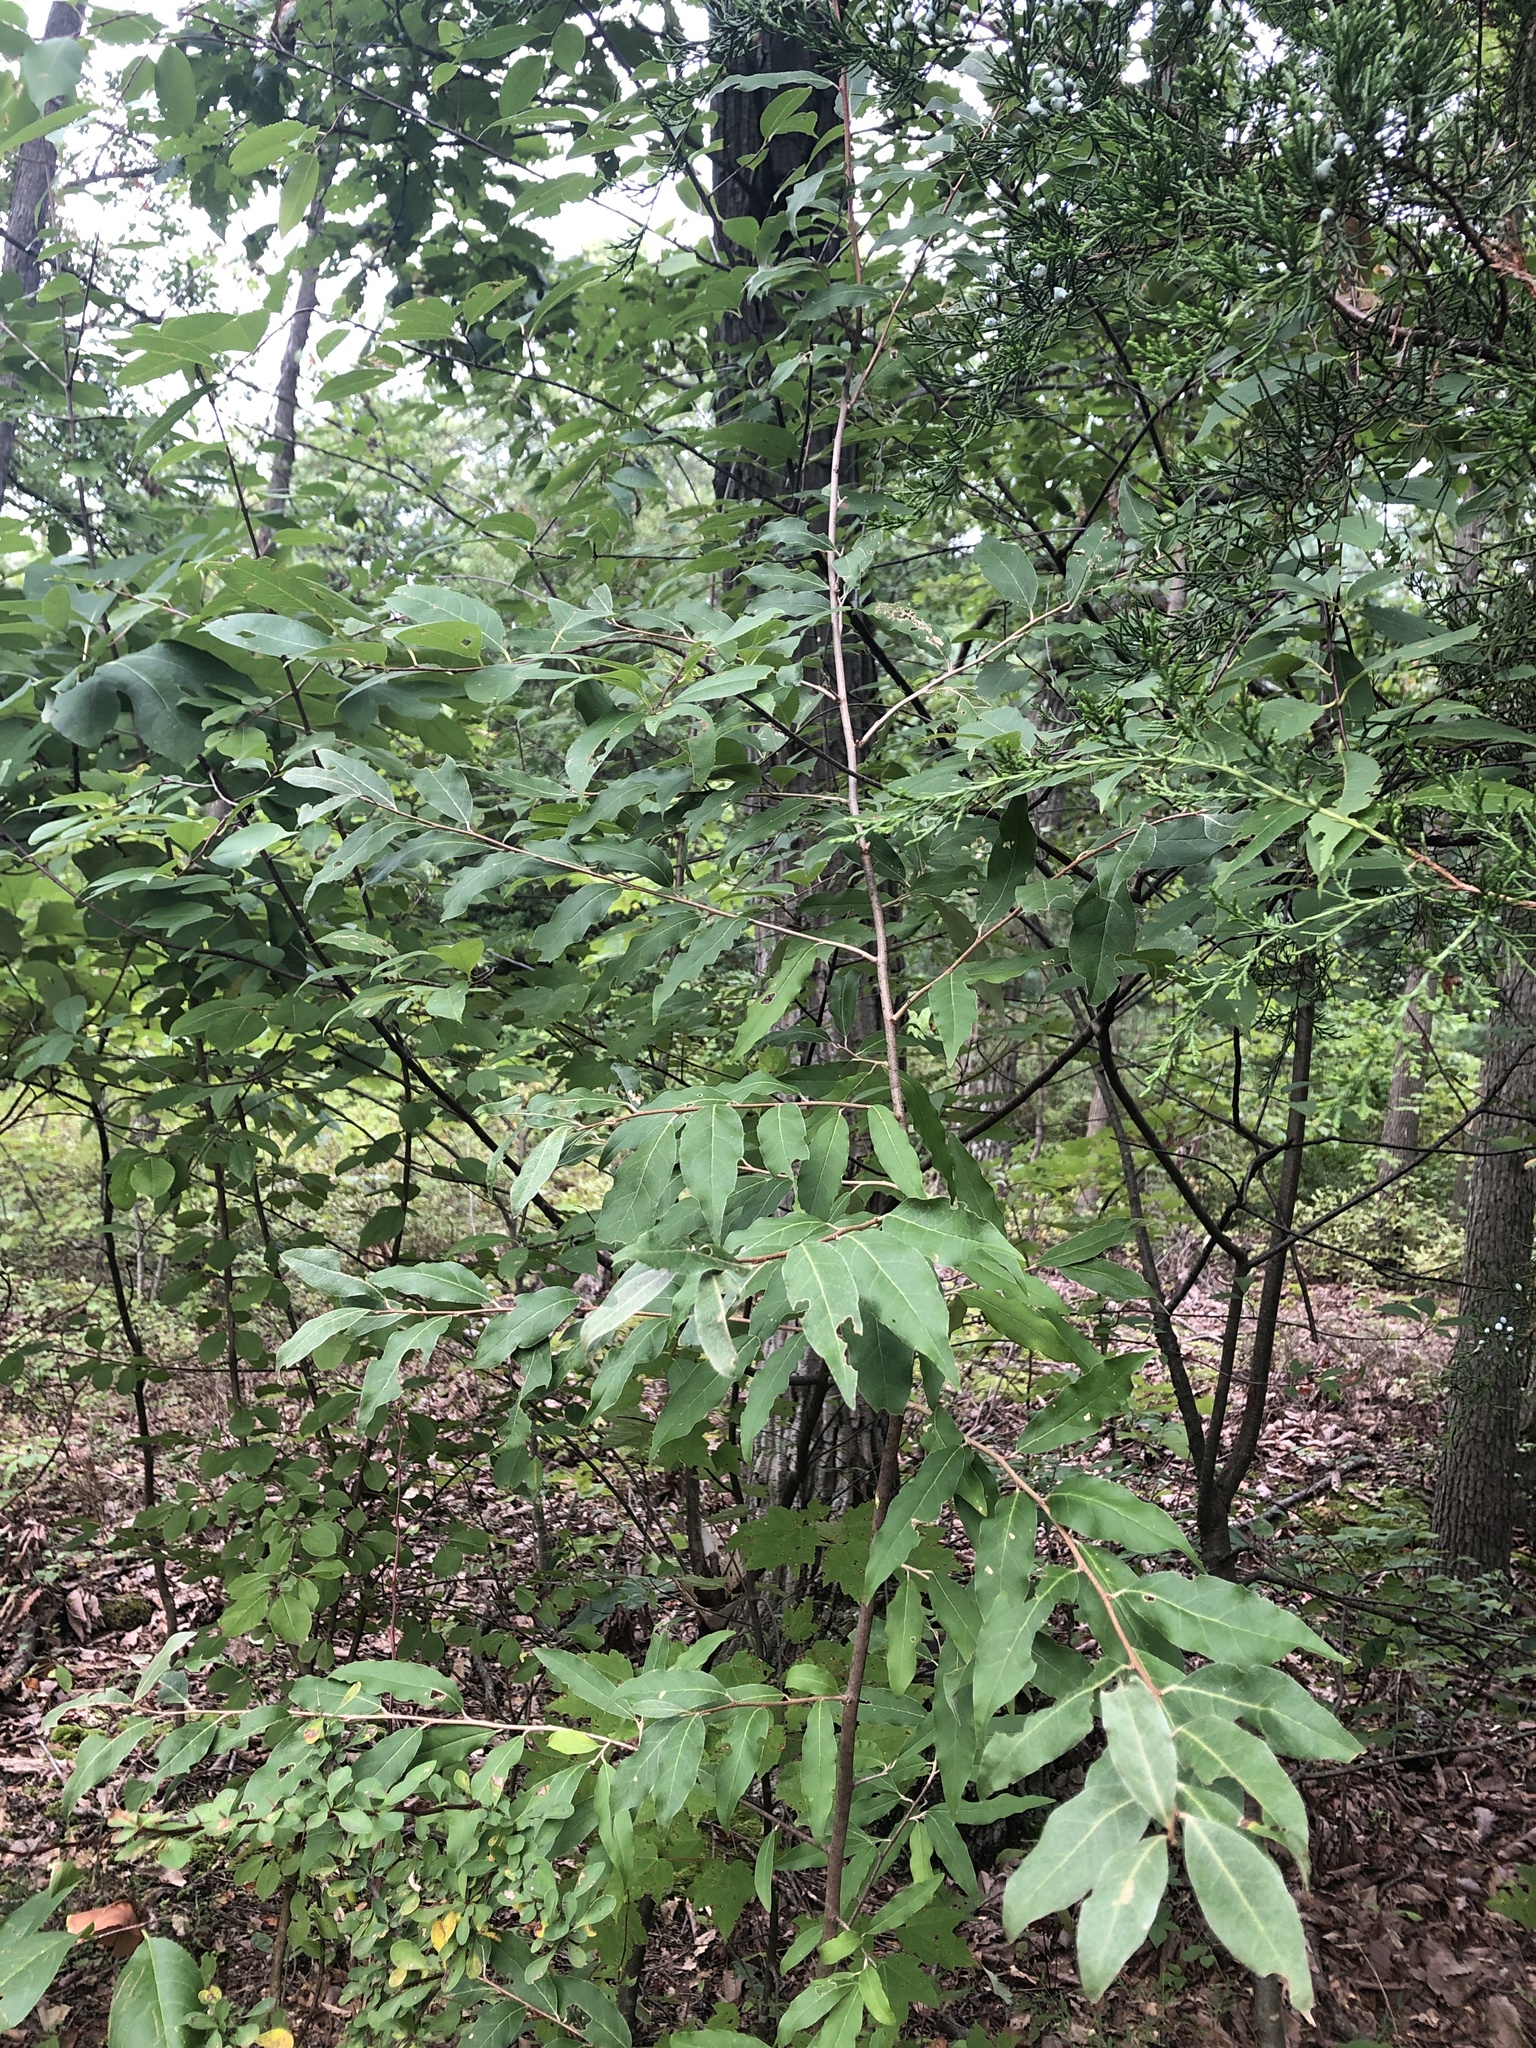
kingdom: Plantae
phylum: Tracheophyta
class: Magnoliopsida
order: Rosales
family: Elaeagnaceae
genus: Elaeagnus
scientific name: Elaeagnus umbellata
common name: Autumn olive
